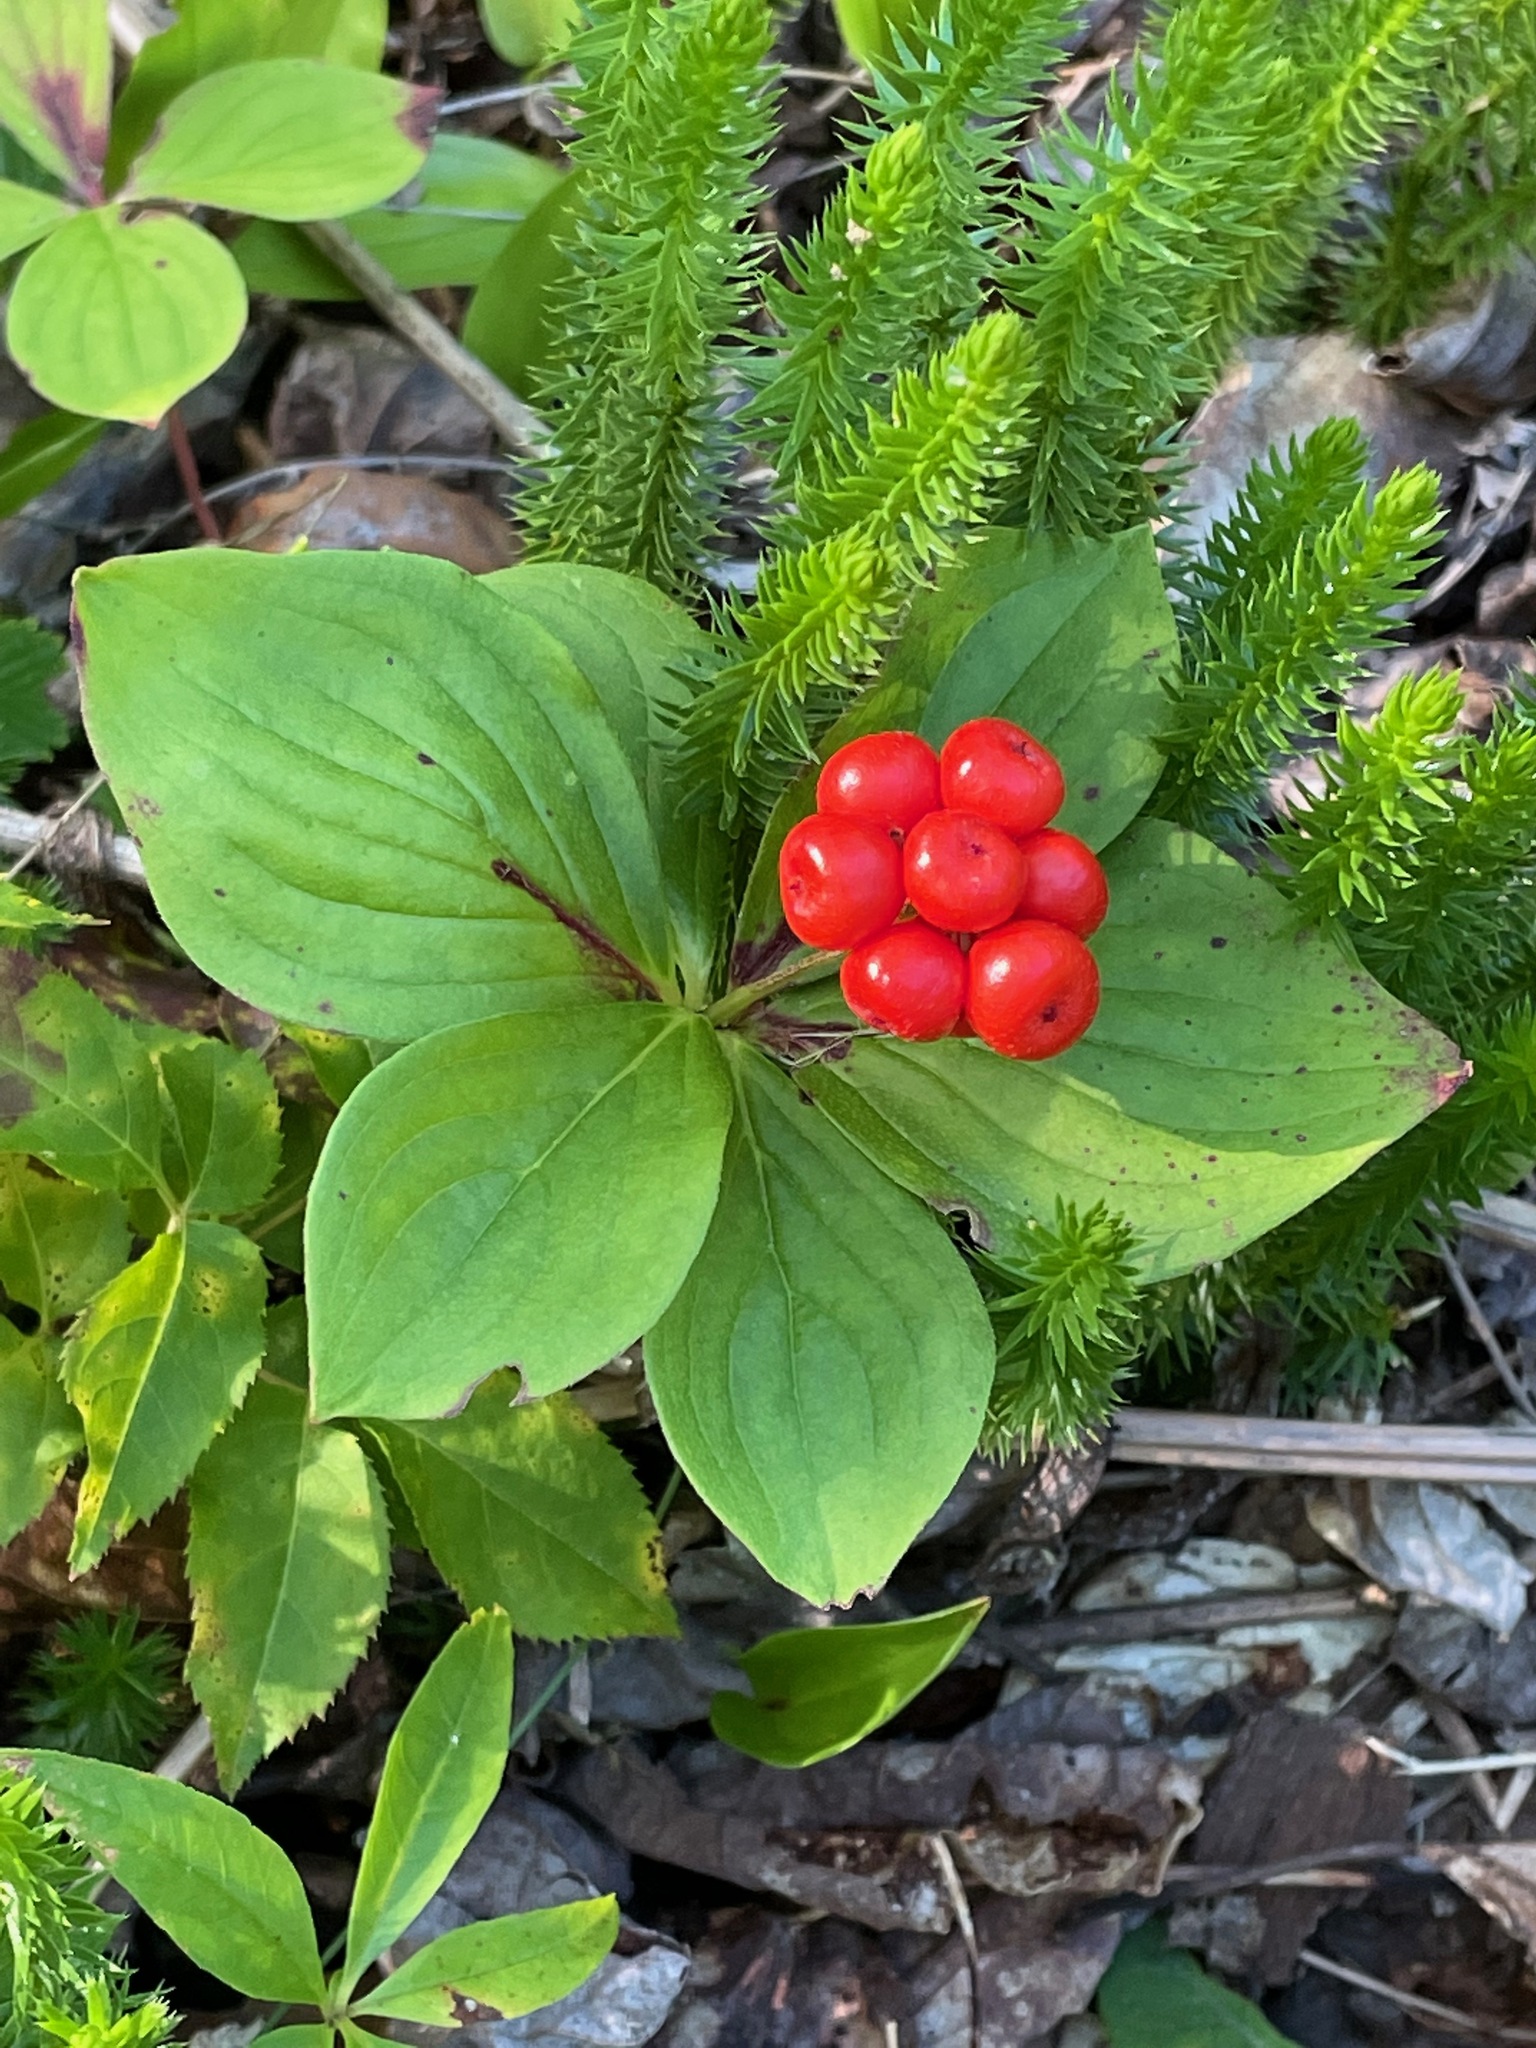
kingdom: Plantae
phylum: Tracheophyta
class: Magnoliopsida
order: Cornales
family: Cornaceae
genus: Cornus
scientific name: Cornus canadensis
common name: Creeping dogwood
